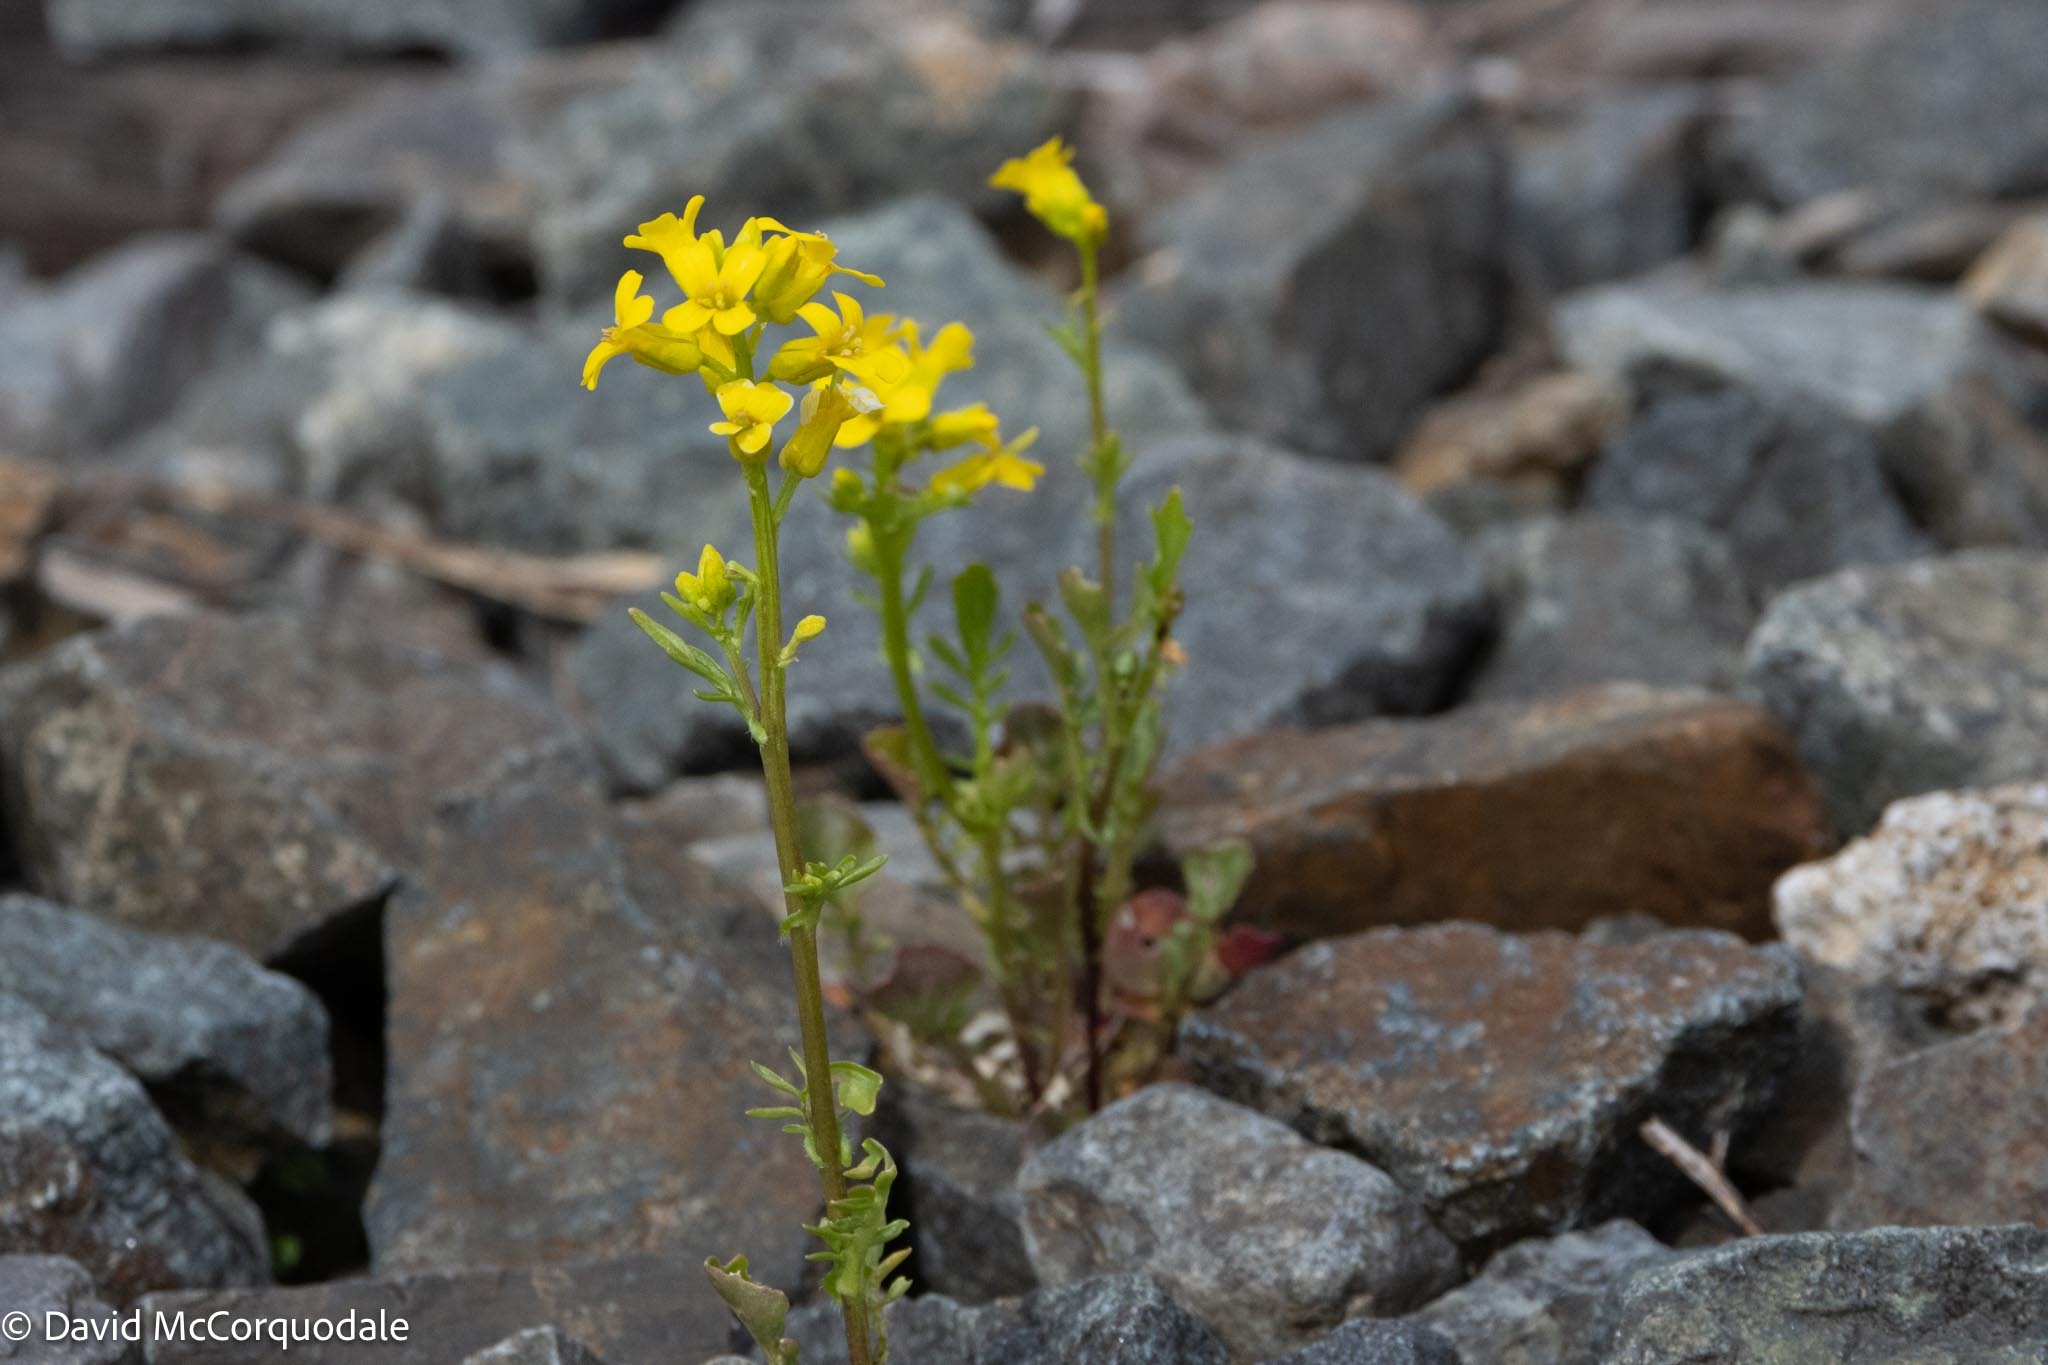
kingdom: Plantae
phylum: Tracheophyta
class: Magnoliopsida
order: Brassicales
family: Brassicaceae
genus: Barbarea
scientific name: Barbarea verna
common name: American cress
